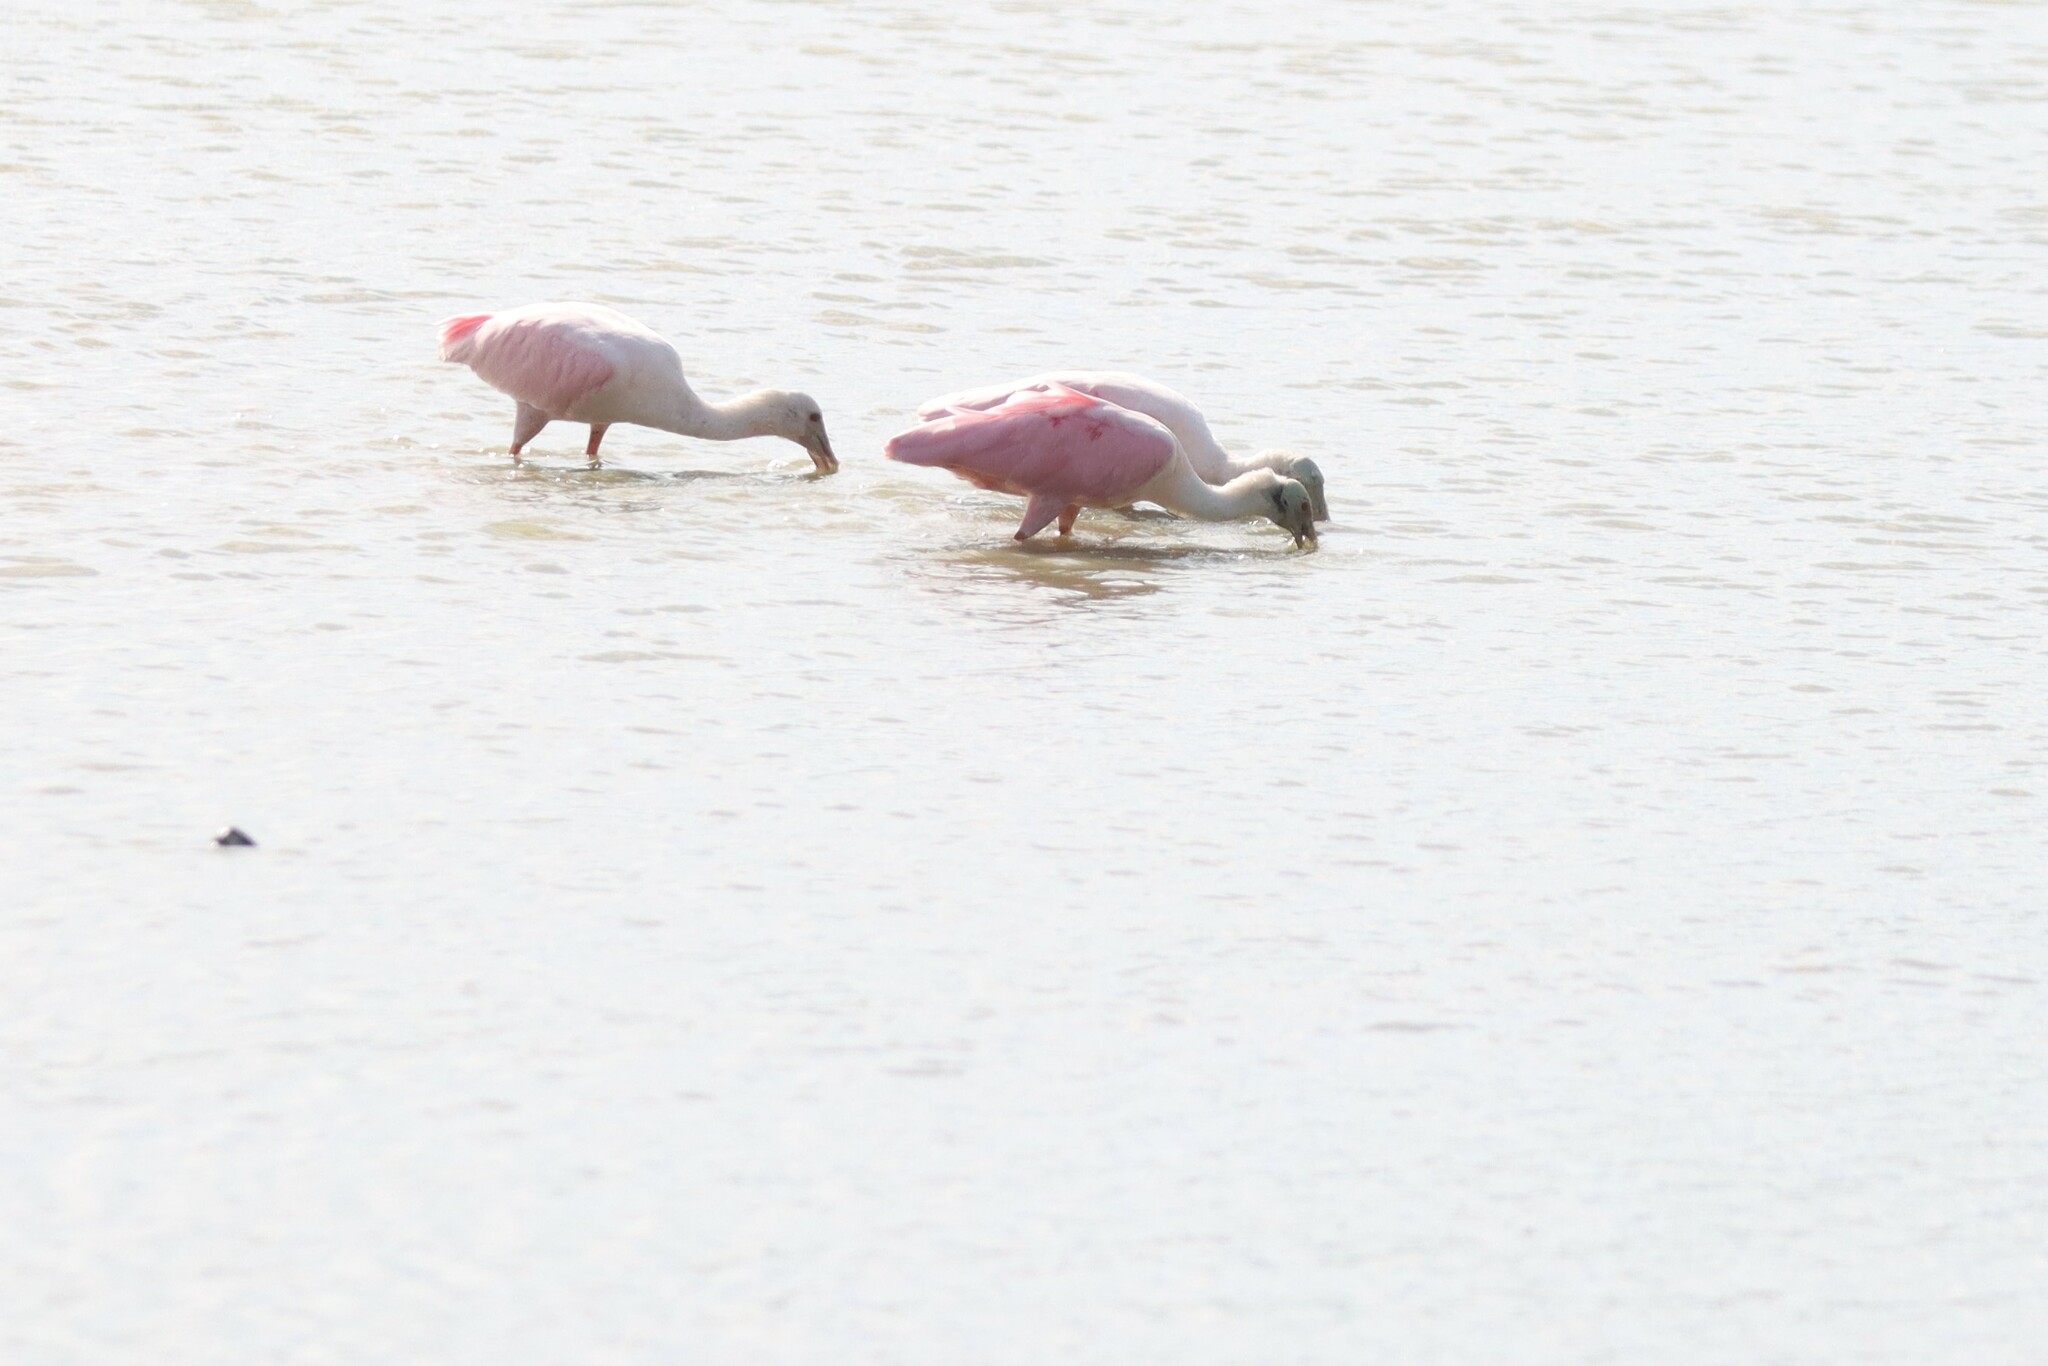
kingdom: Animalia
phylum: Chordata
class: Aves
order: Pelecaniformes
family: Threskiornithidae
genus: Platalea
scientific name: Platalea ajaja
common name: Roseate spoonbill
